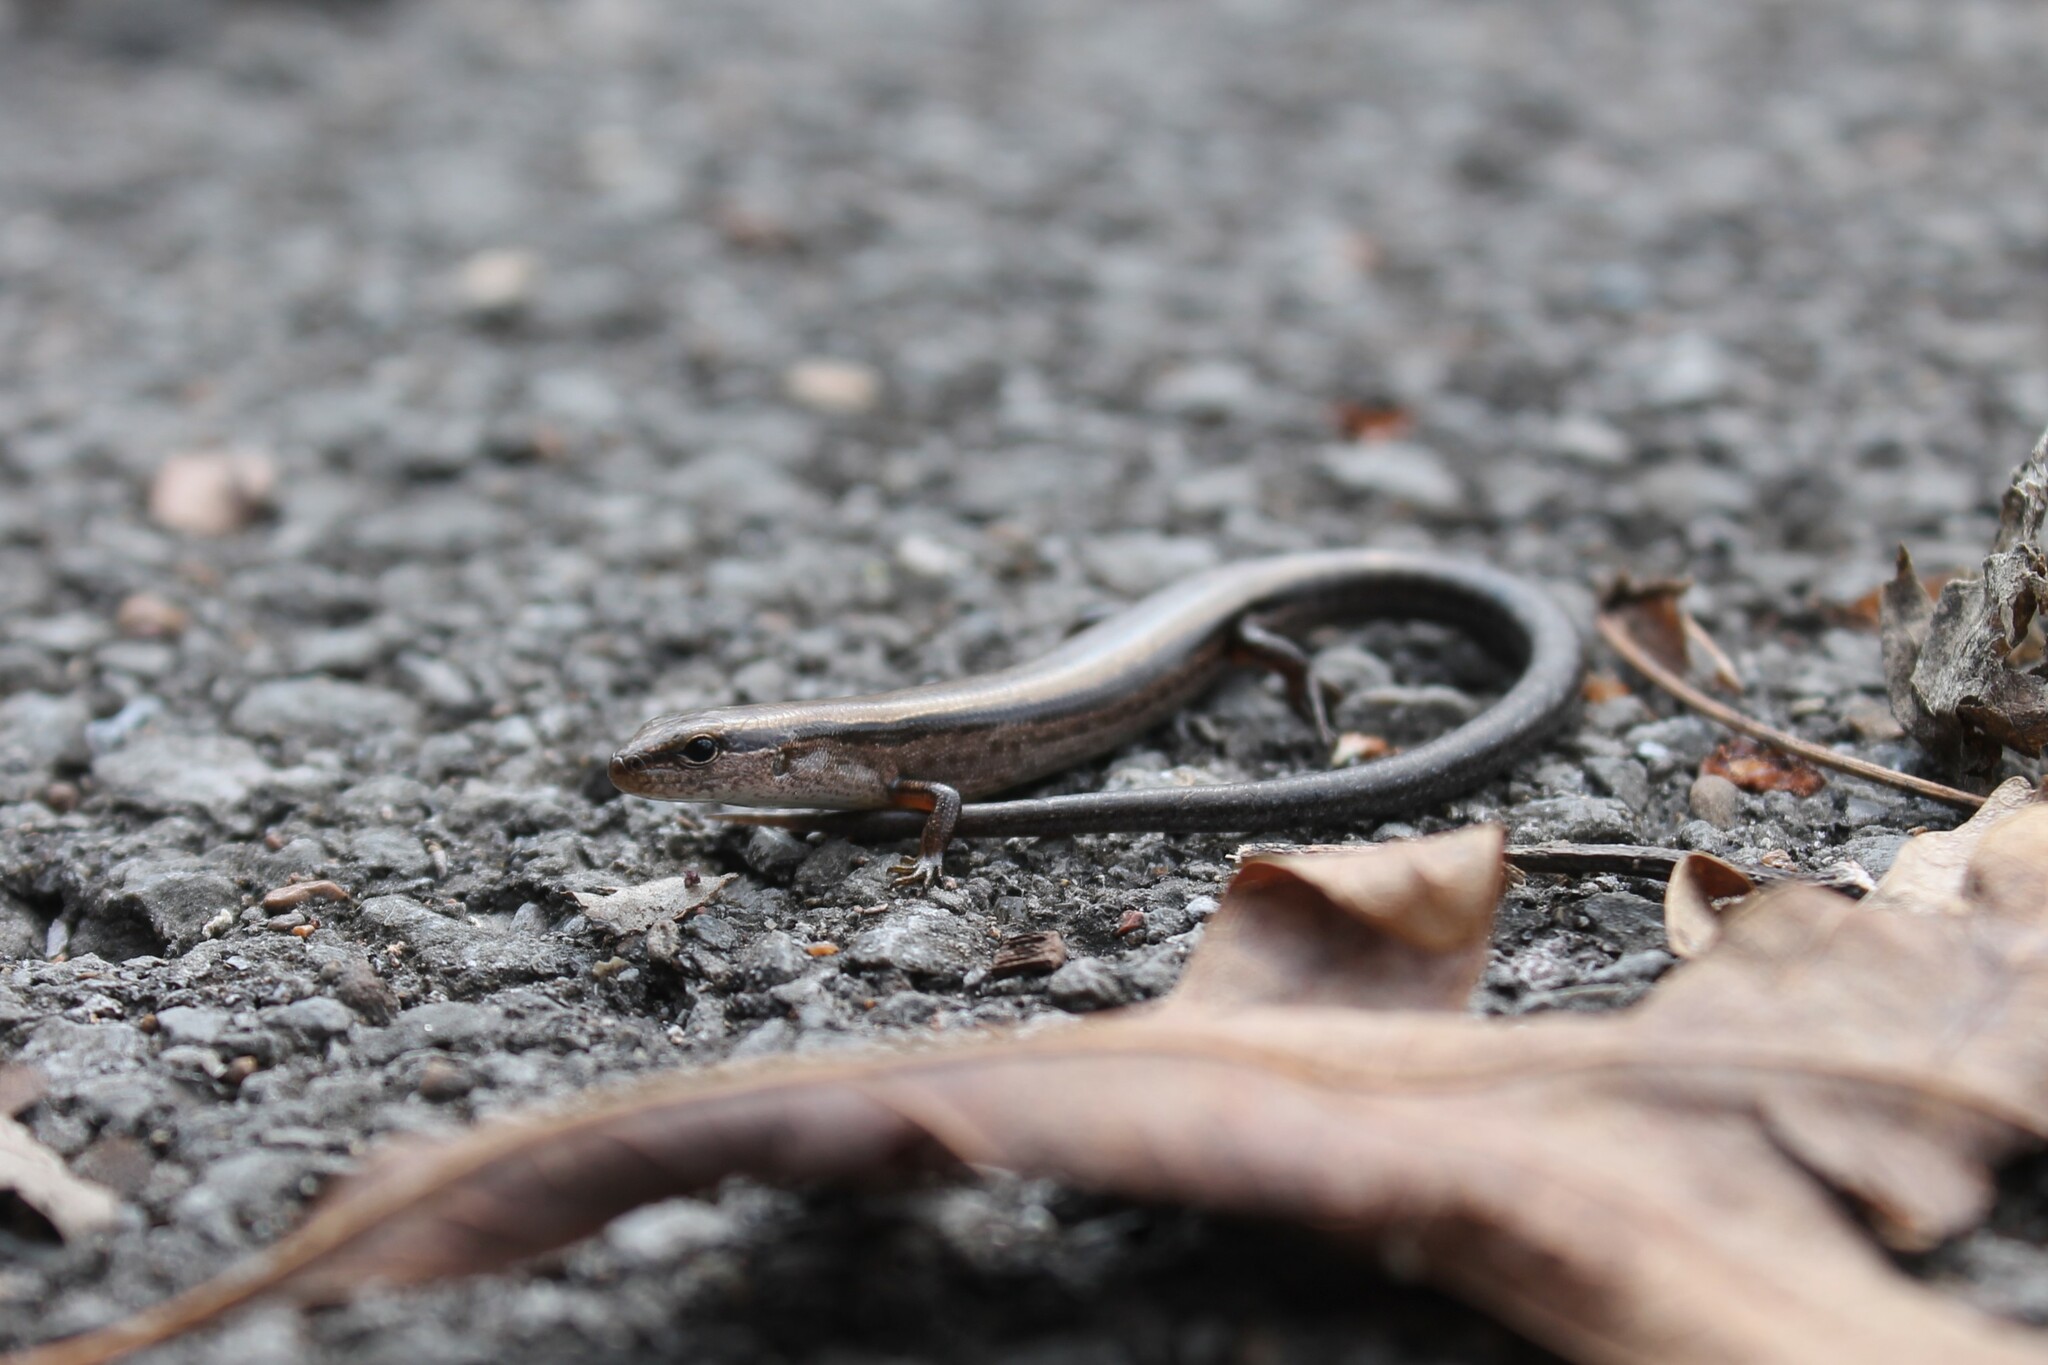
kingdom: Animalia
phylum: Chordata
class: Squamata
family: Scincidae
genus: Scincella
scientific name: Scincella lateralis
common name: Ground skink
